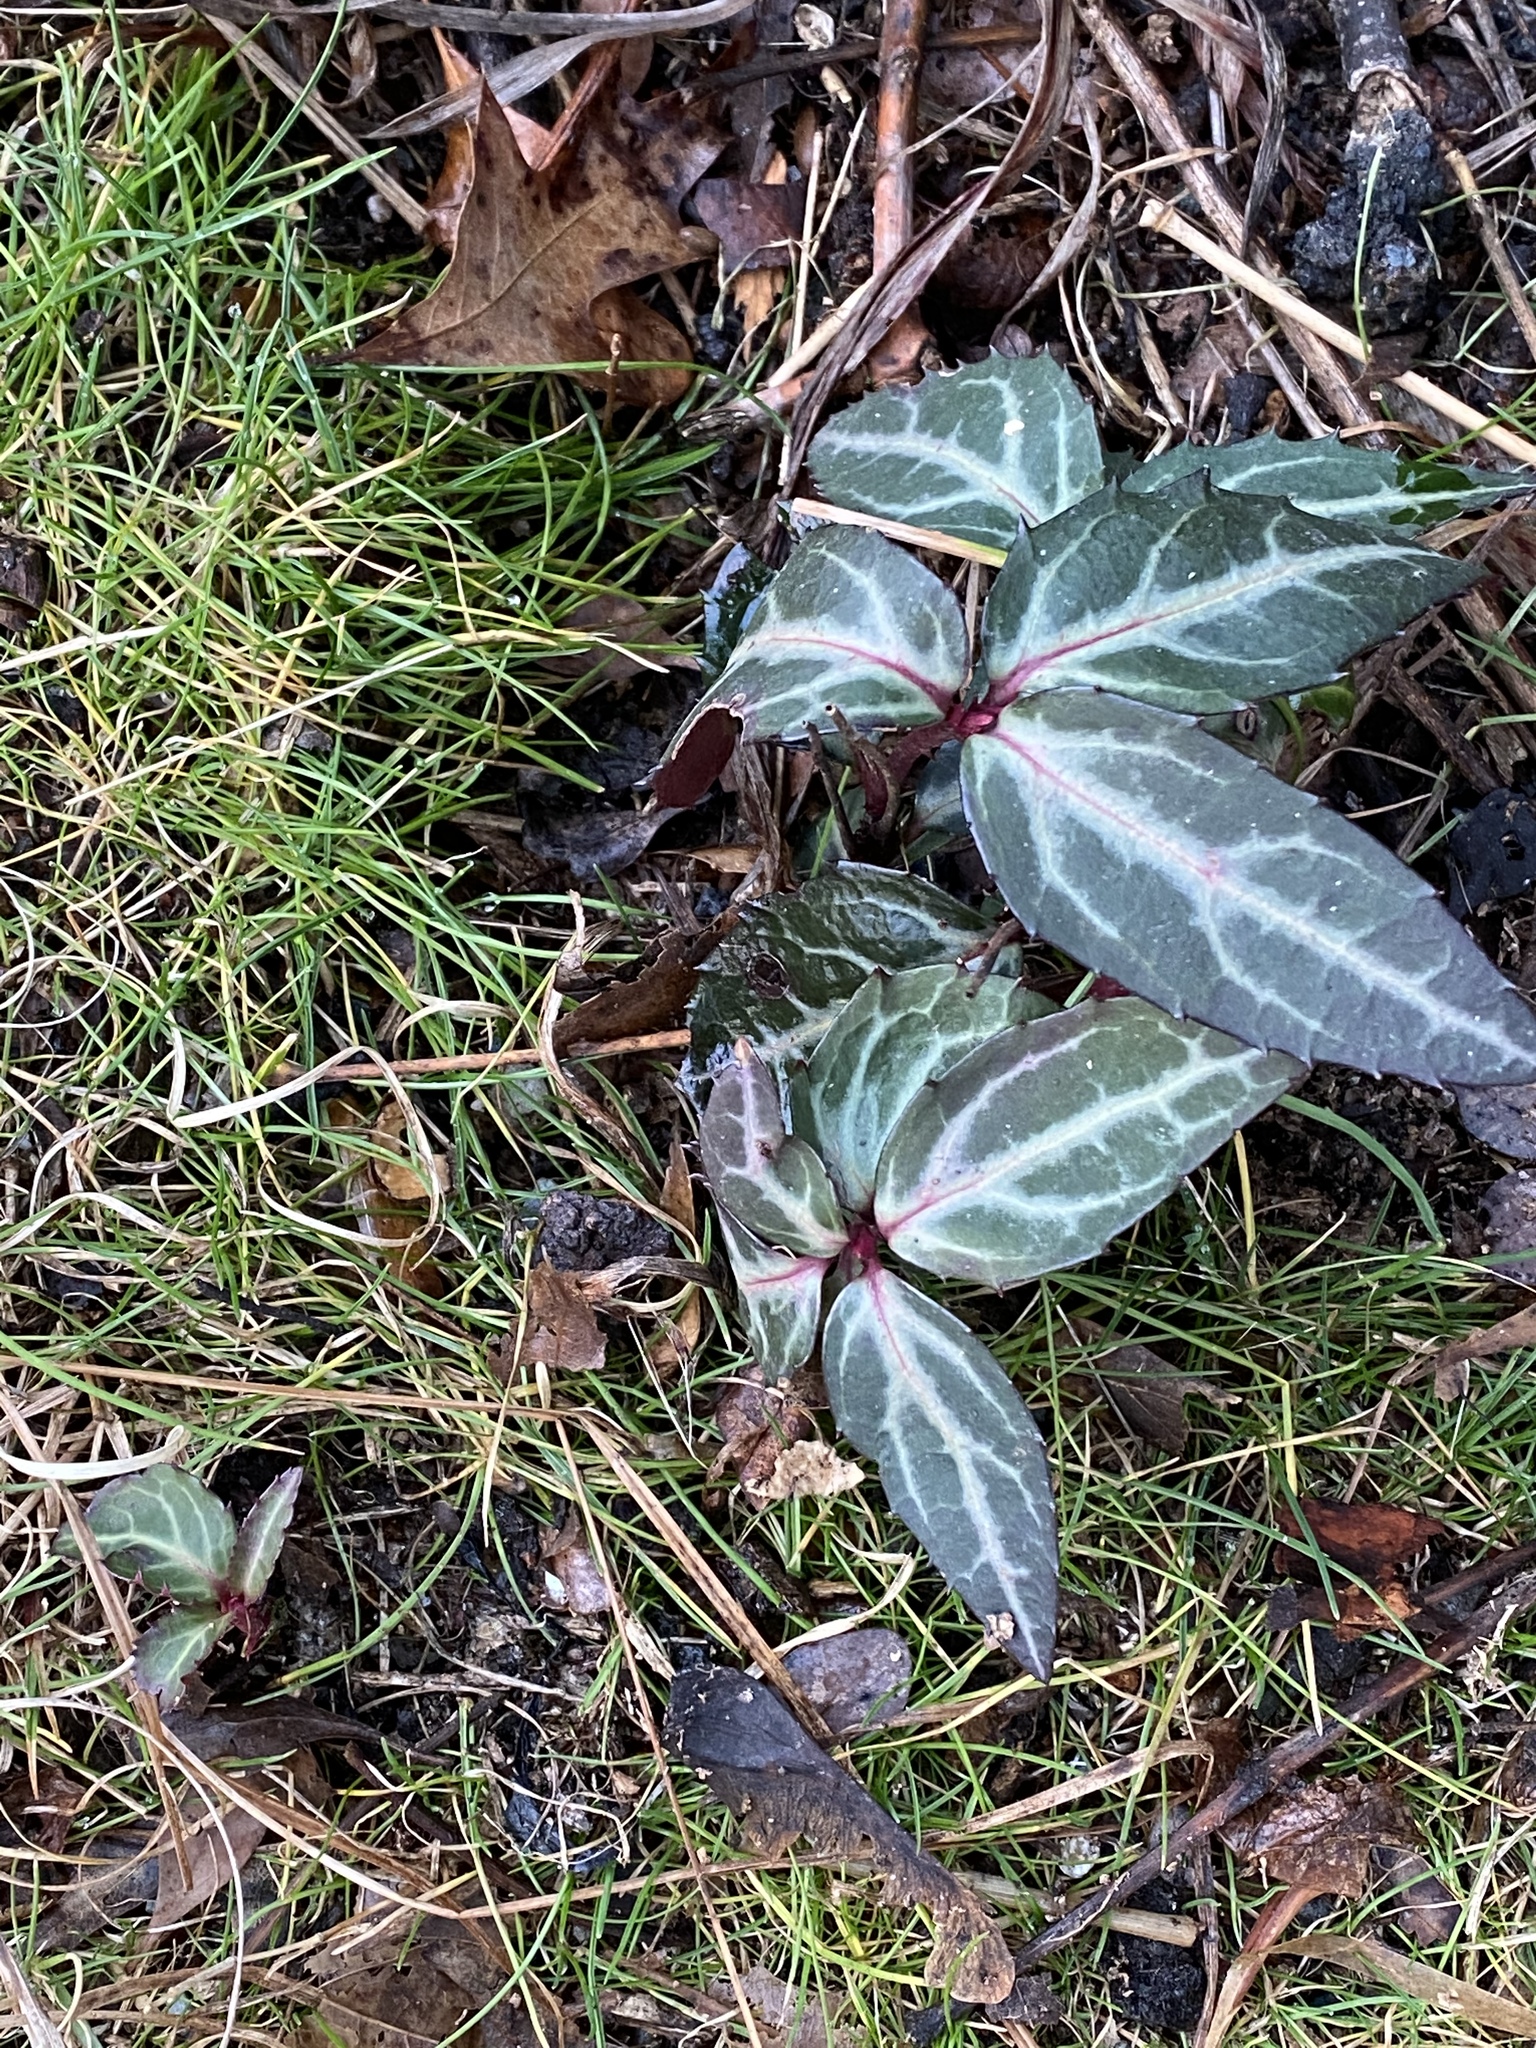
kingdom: Plantae
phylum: Tracheophyta
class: Magnoliopsida
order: Ericales
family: Ericaceae
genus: Chimaphila
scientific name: Chimaphila maculata
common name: Spotted pipsissewa
